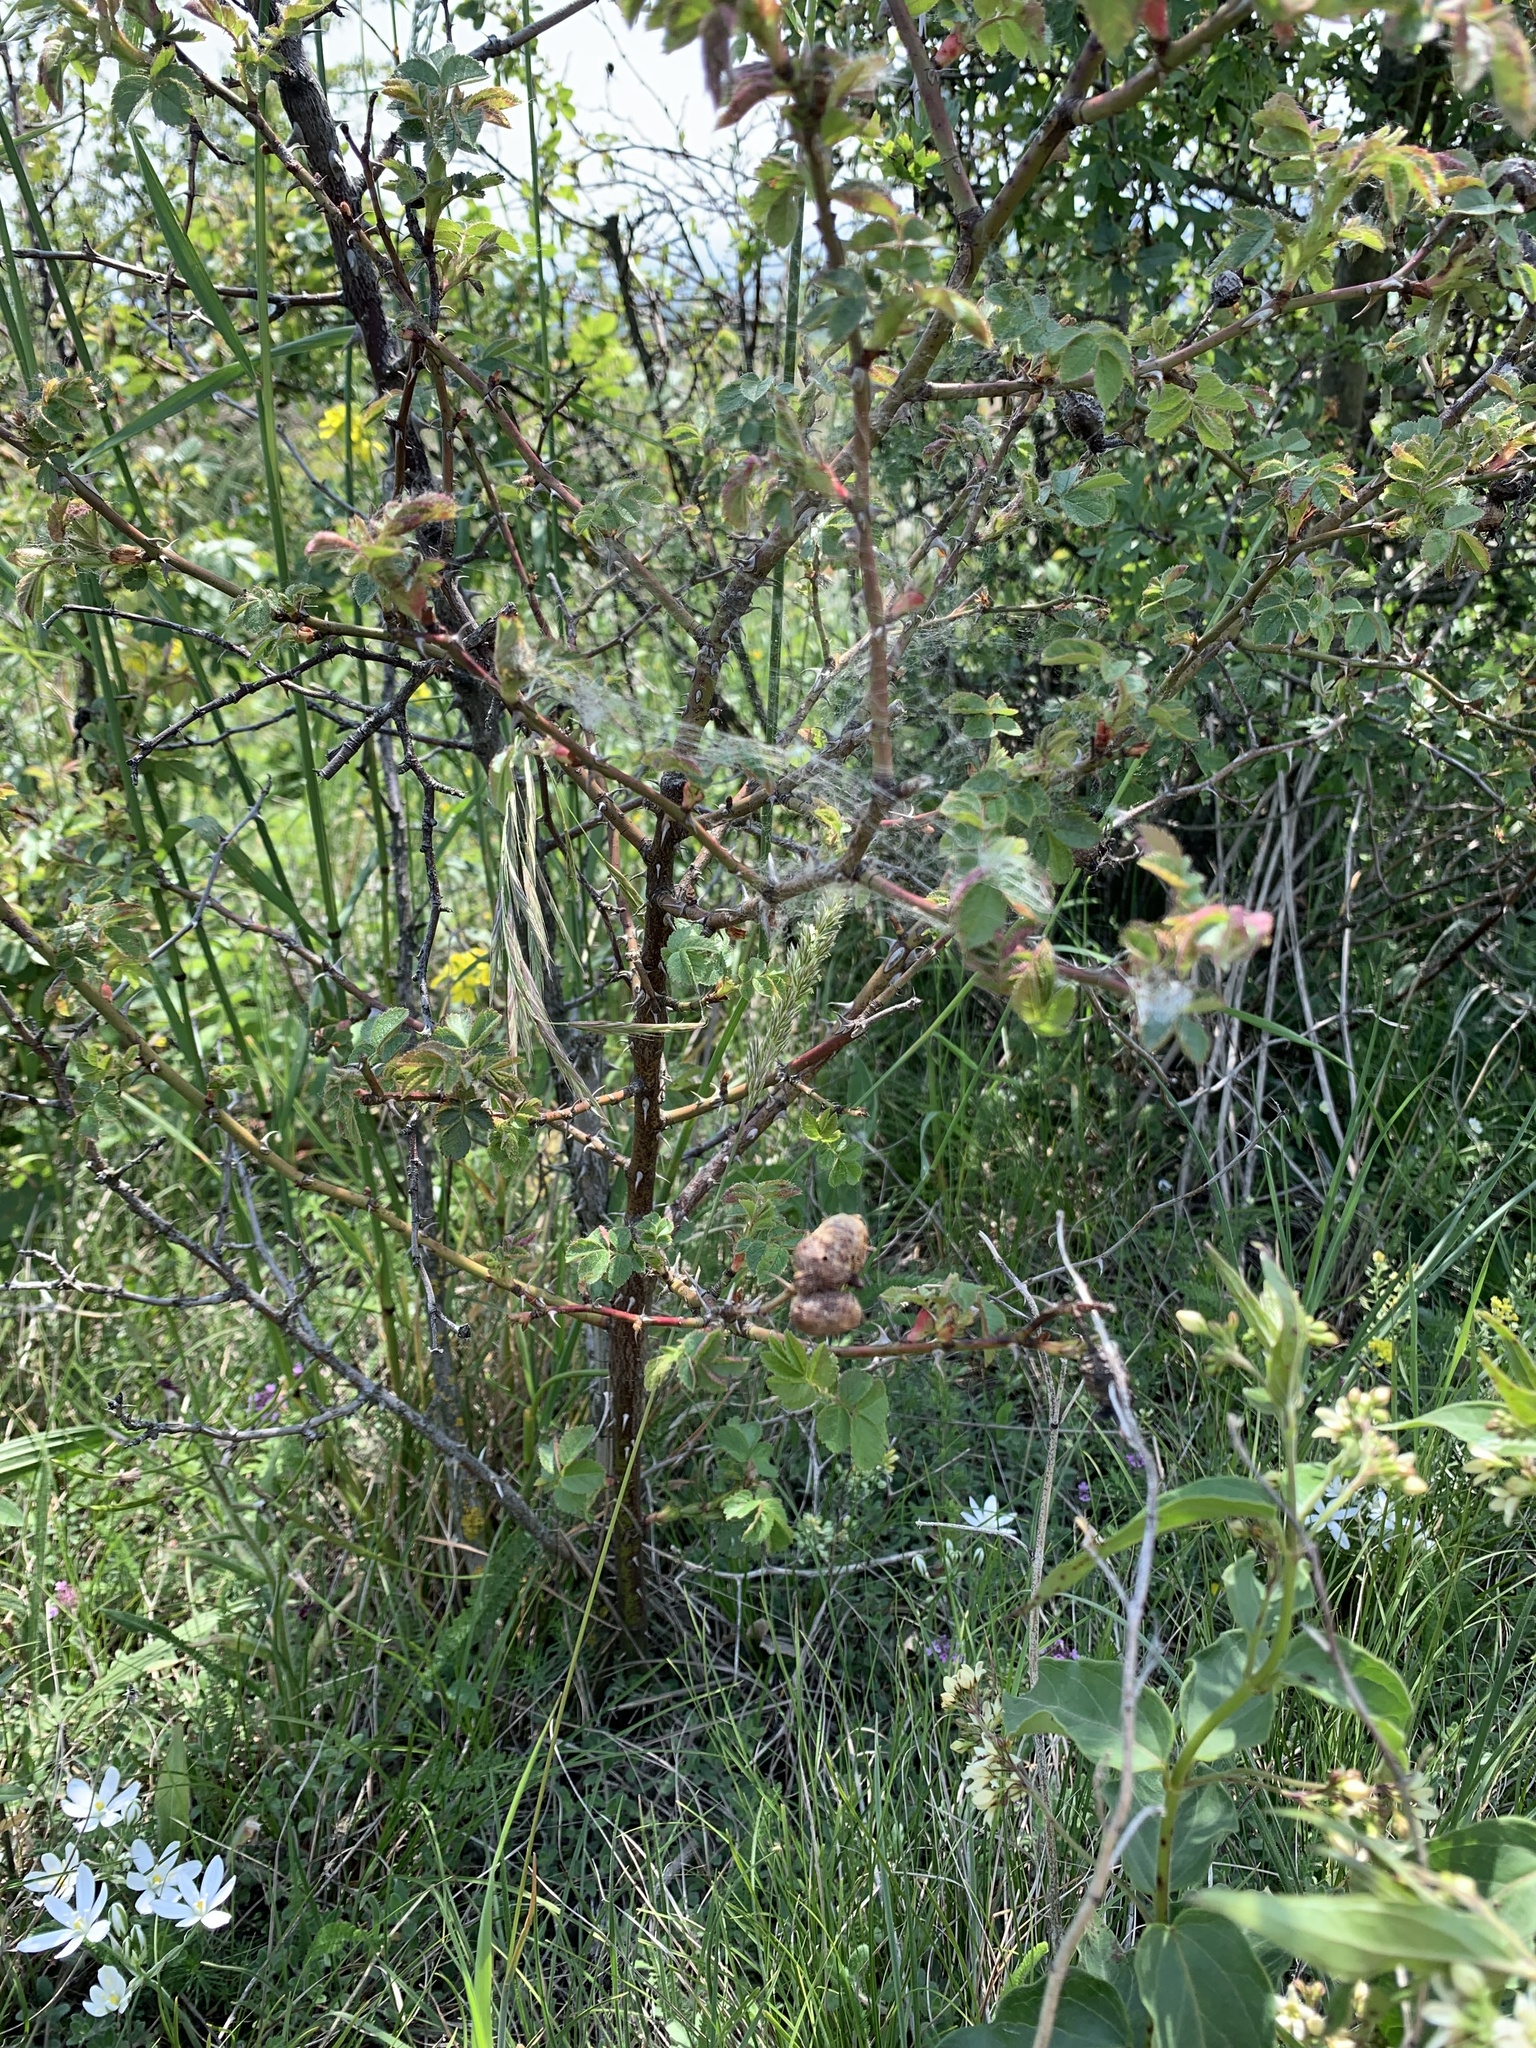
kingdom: Animalia
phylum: Arthropoda
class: Insecta
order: Hymenoptera
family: Cynipidae
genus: Diplolepis
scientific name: Diplolepis mayri
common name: Gall wasp
